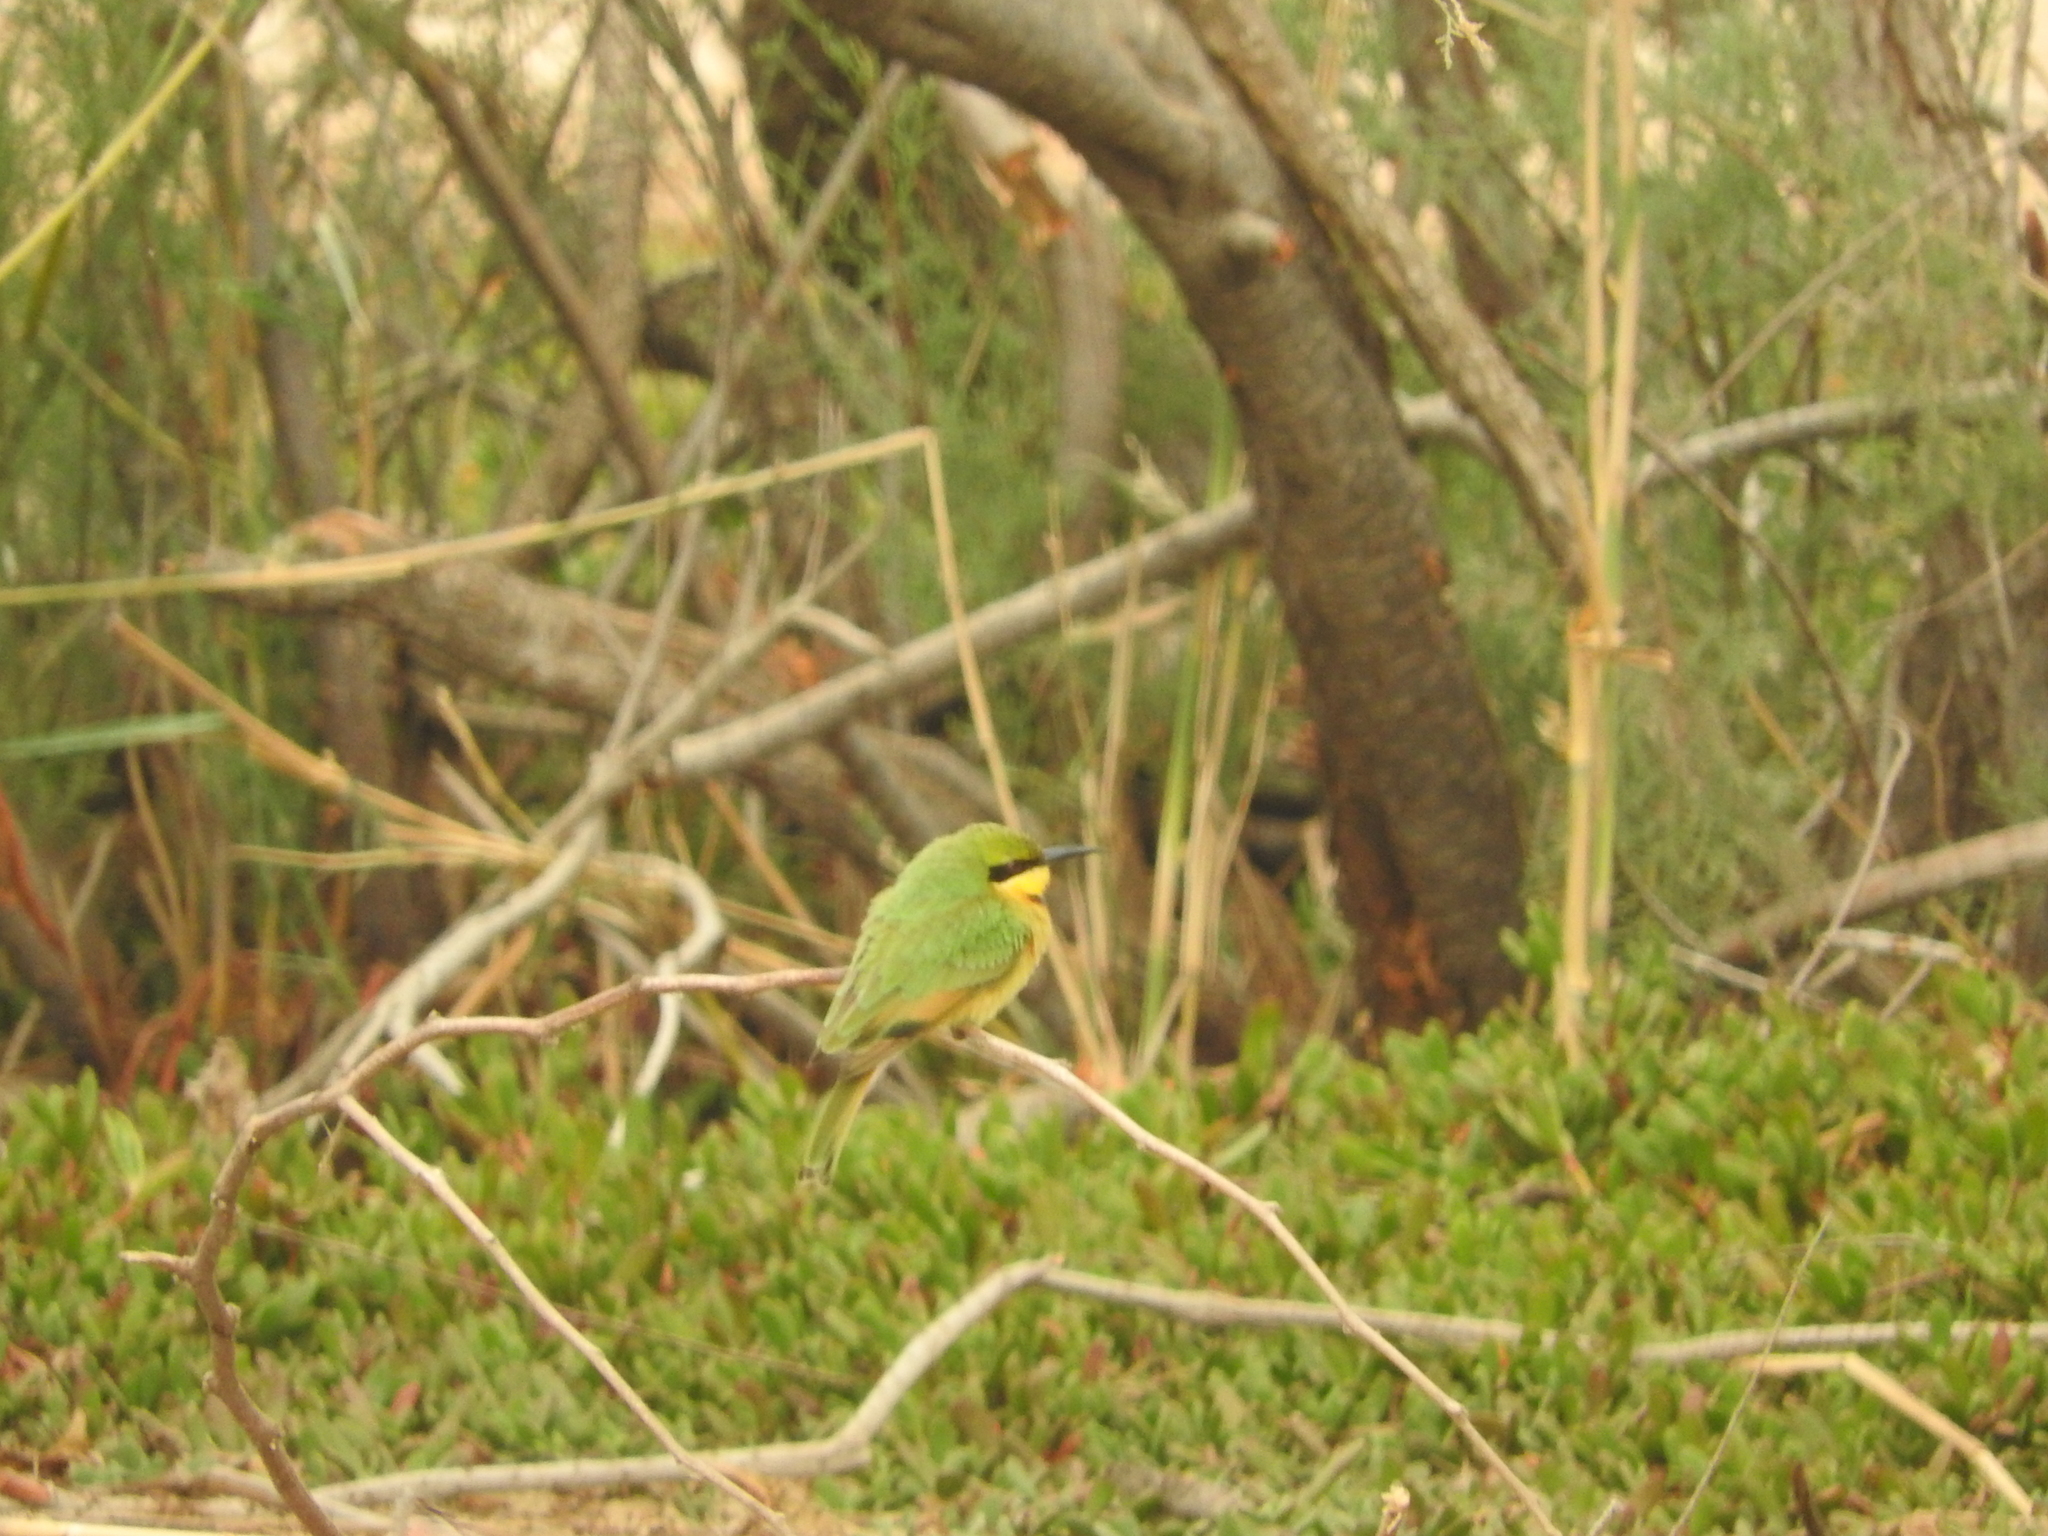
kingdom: Animalia
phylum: Chordata
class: Aves
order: Coraciiformes
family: Meropidae
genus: Merops
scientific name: Merops pusillus
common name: Little bee-eater
